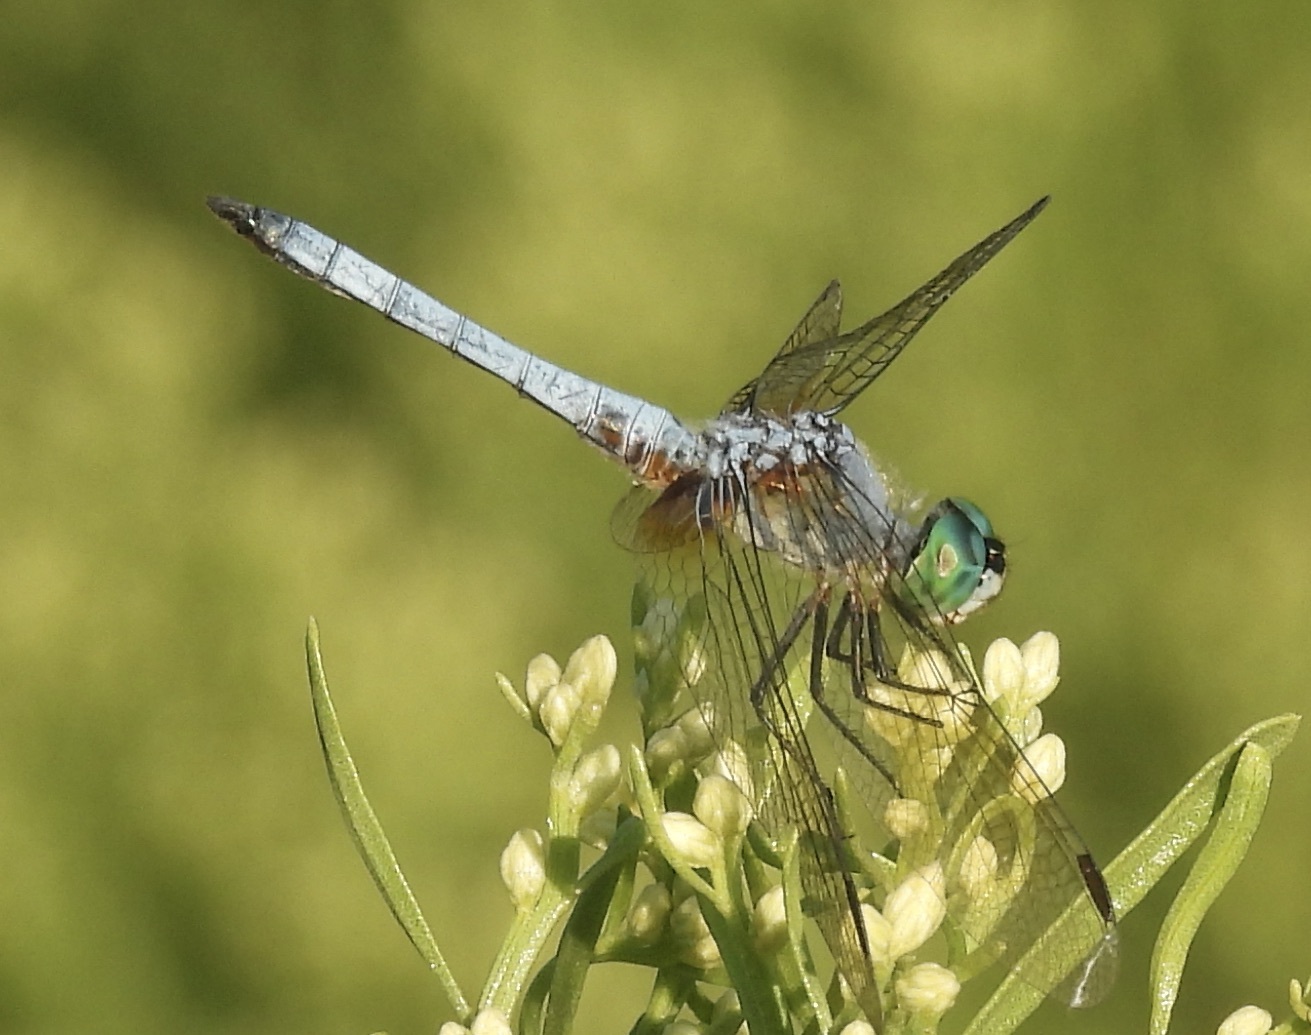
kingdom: Animalia
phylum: Arthropoda
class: Insecta
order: Odonata
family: Libellulidae
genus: Pachydiplax
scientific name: Pachydiplax longipennis
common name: Blue dasher
